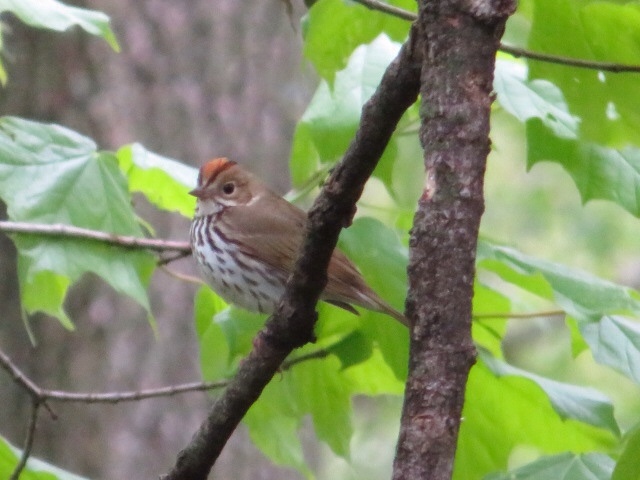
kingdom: Animalia
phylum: Chordata
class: Aves
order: Passeriformes
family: Parulidae
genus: Seiurus
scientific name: Seiurus aurocapilla
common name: Ovenbird
